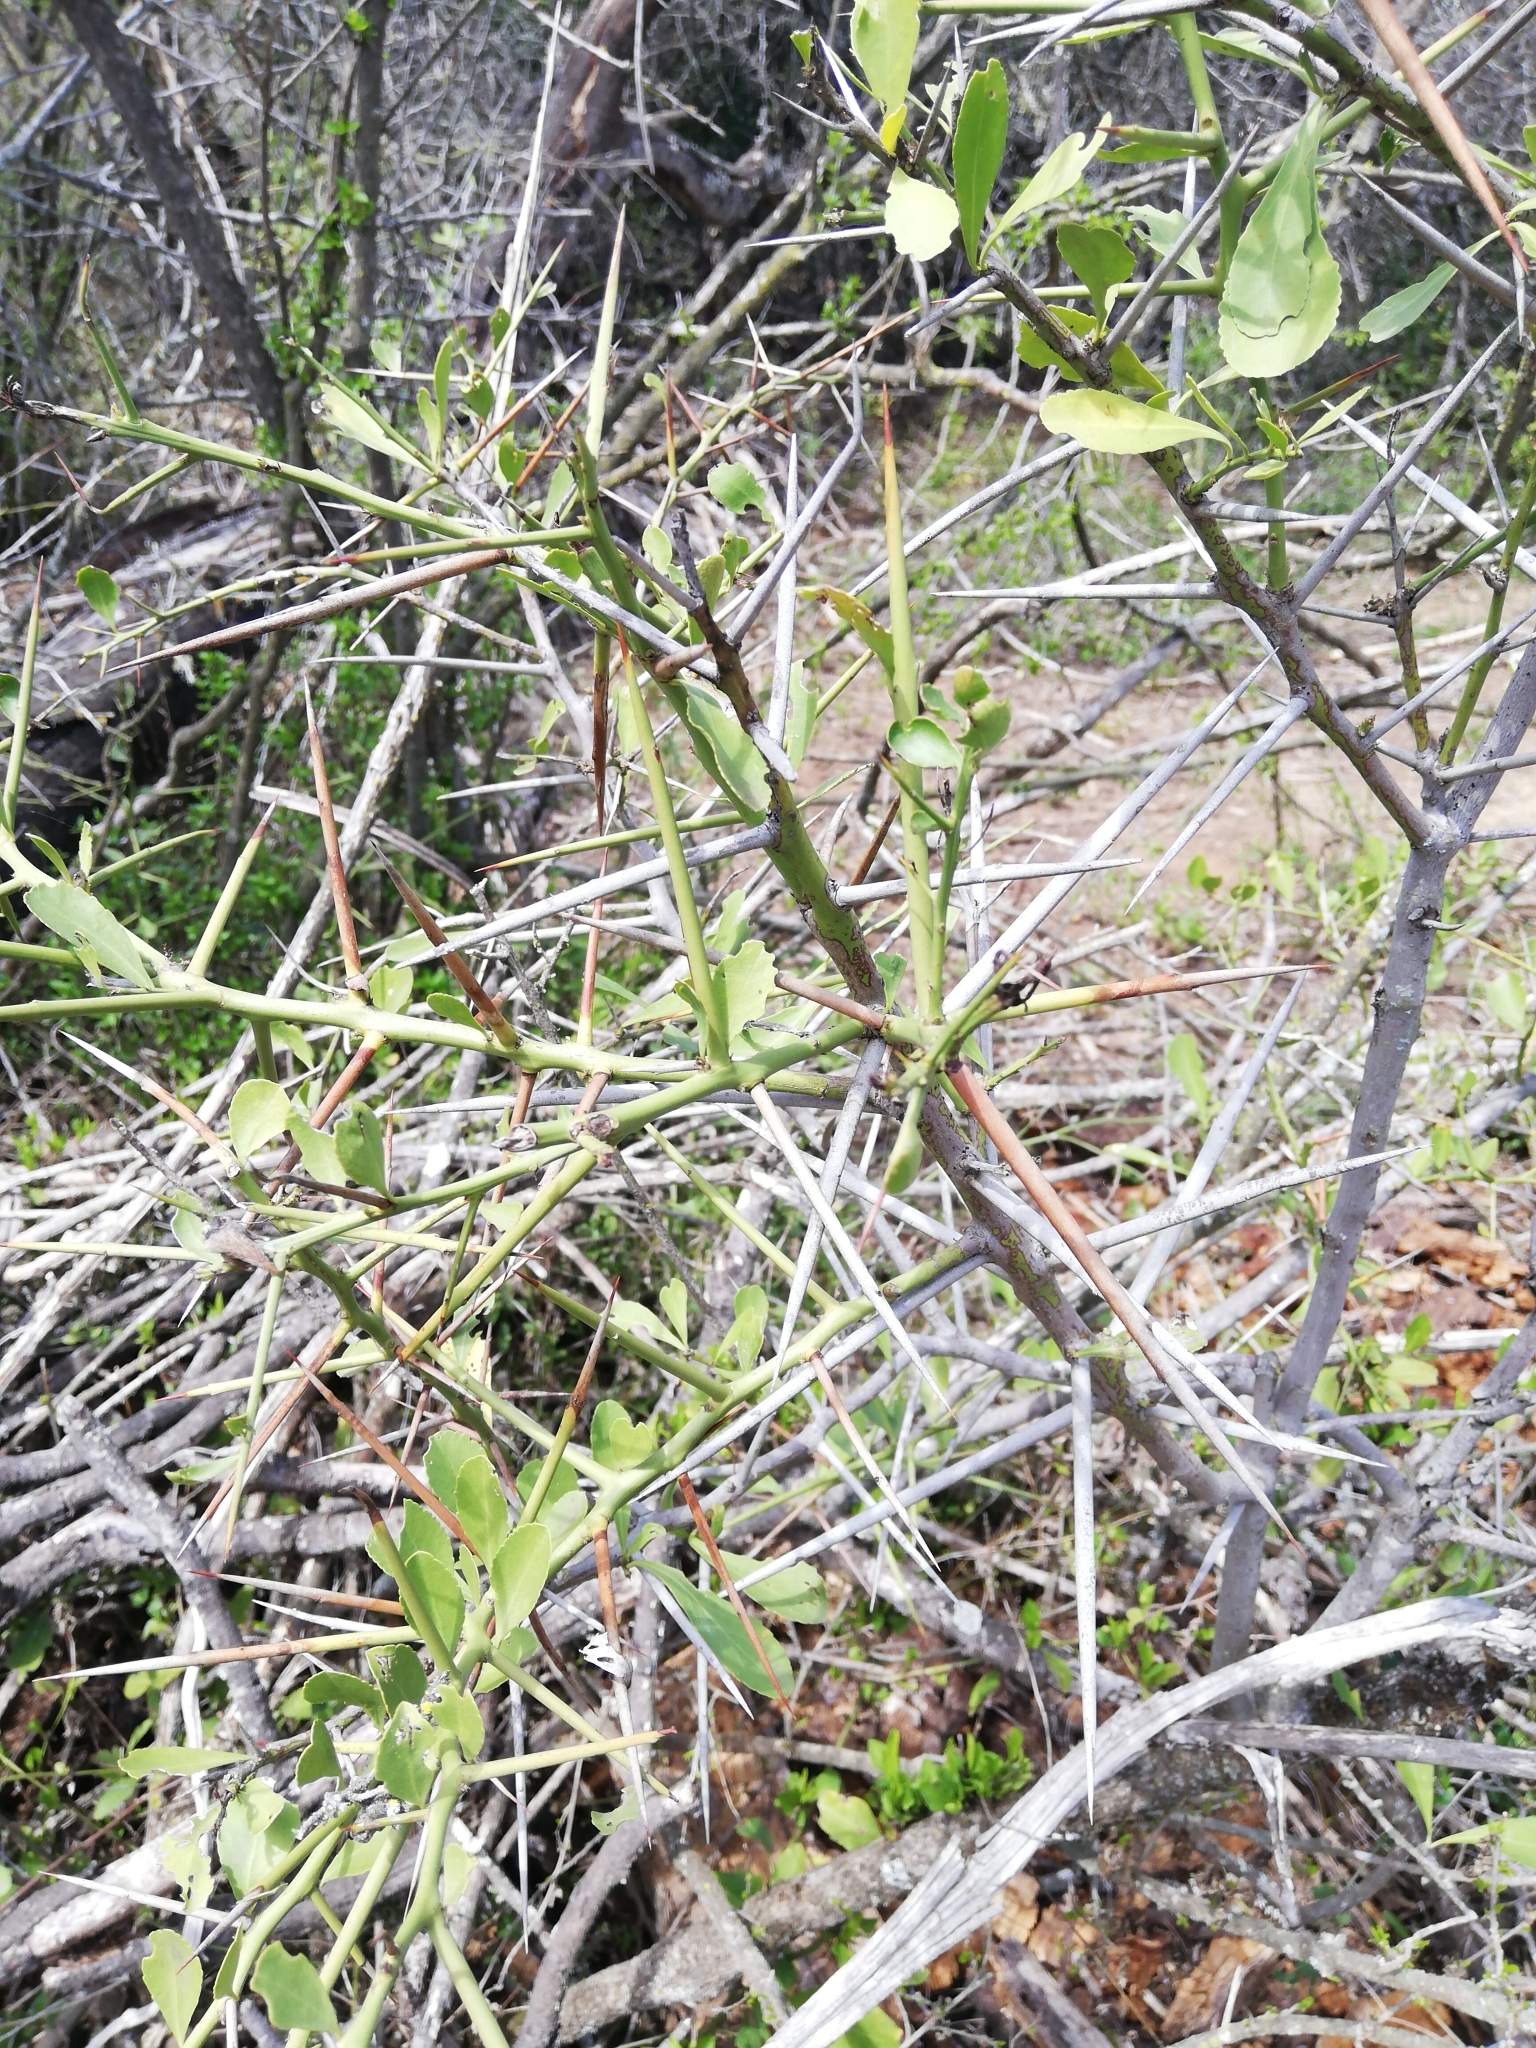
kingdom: Plantae
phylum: Tracheophyta
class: Magnoliopsida
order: Celastrales
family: Celastraceae
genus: Gymnosporia
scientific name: Gymnosporia buxifolia
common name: Common spike-thorn
